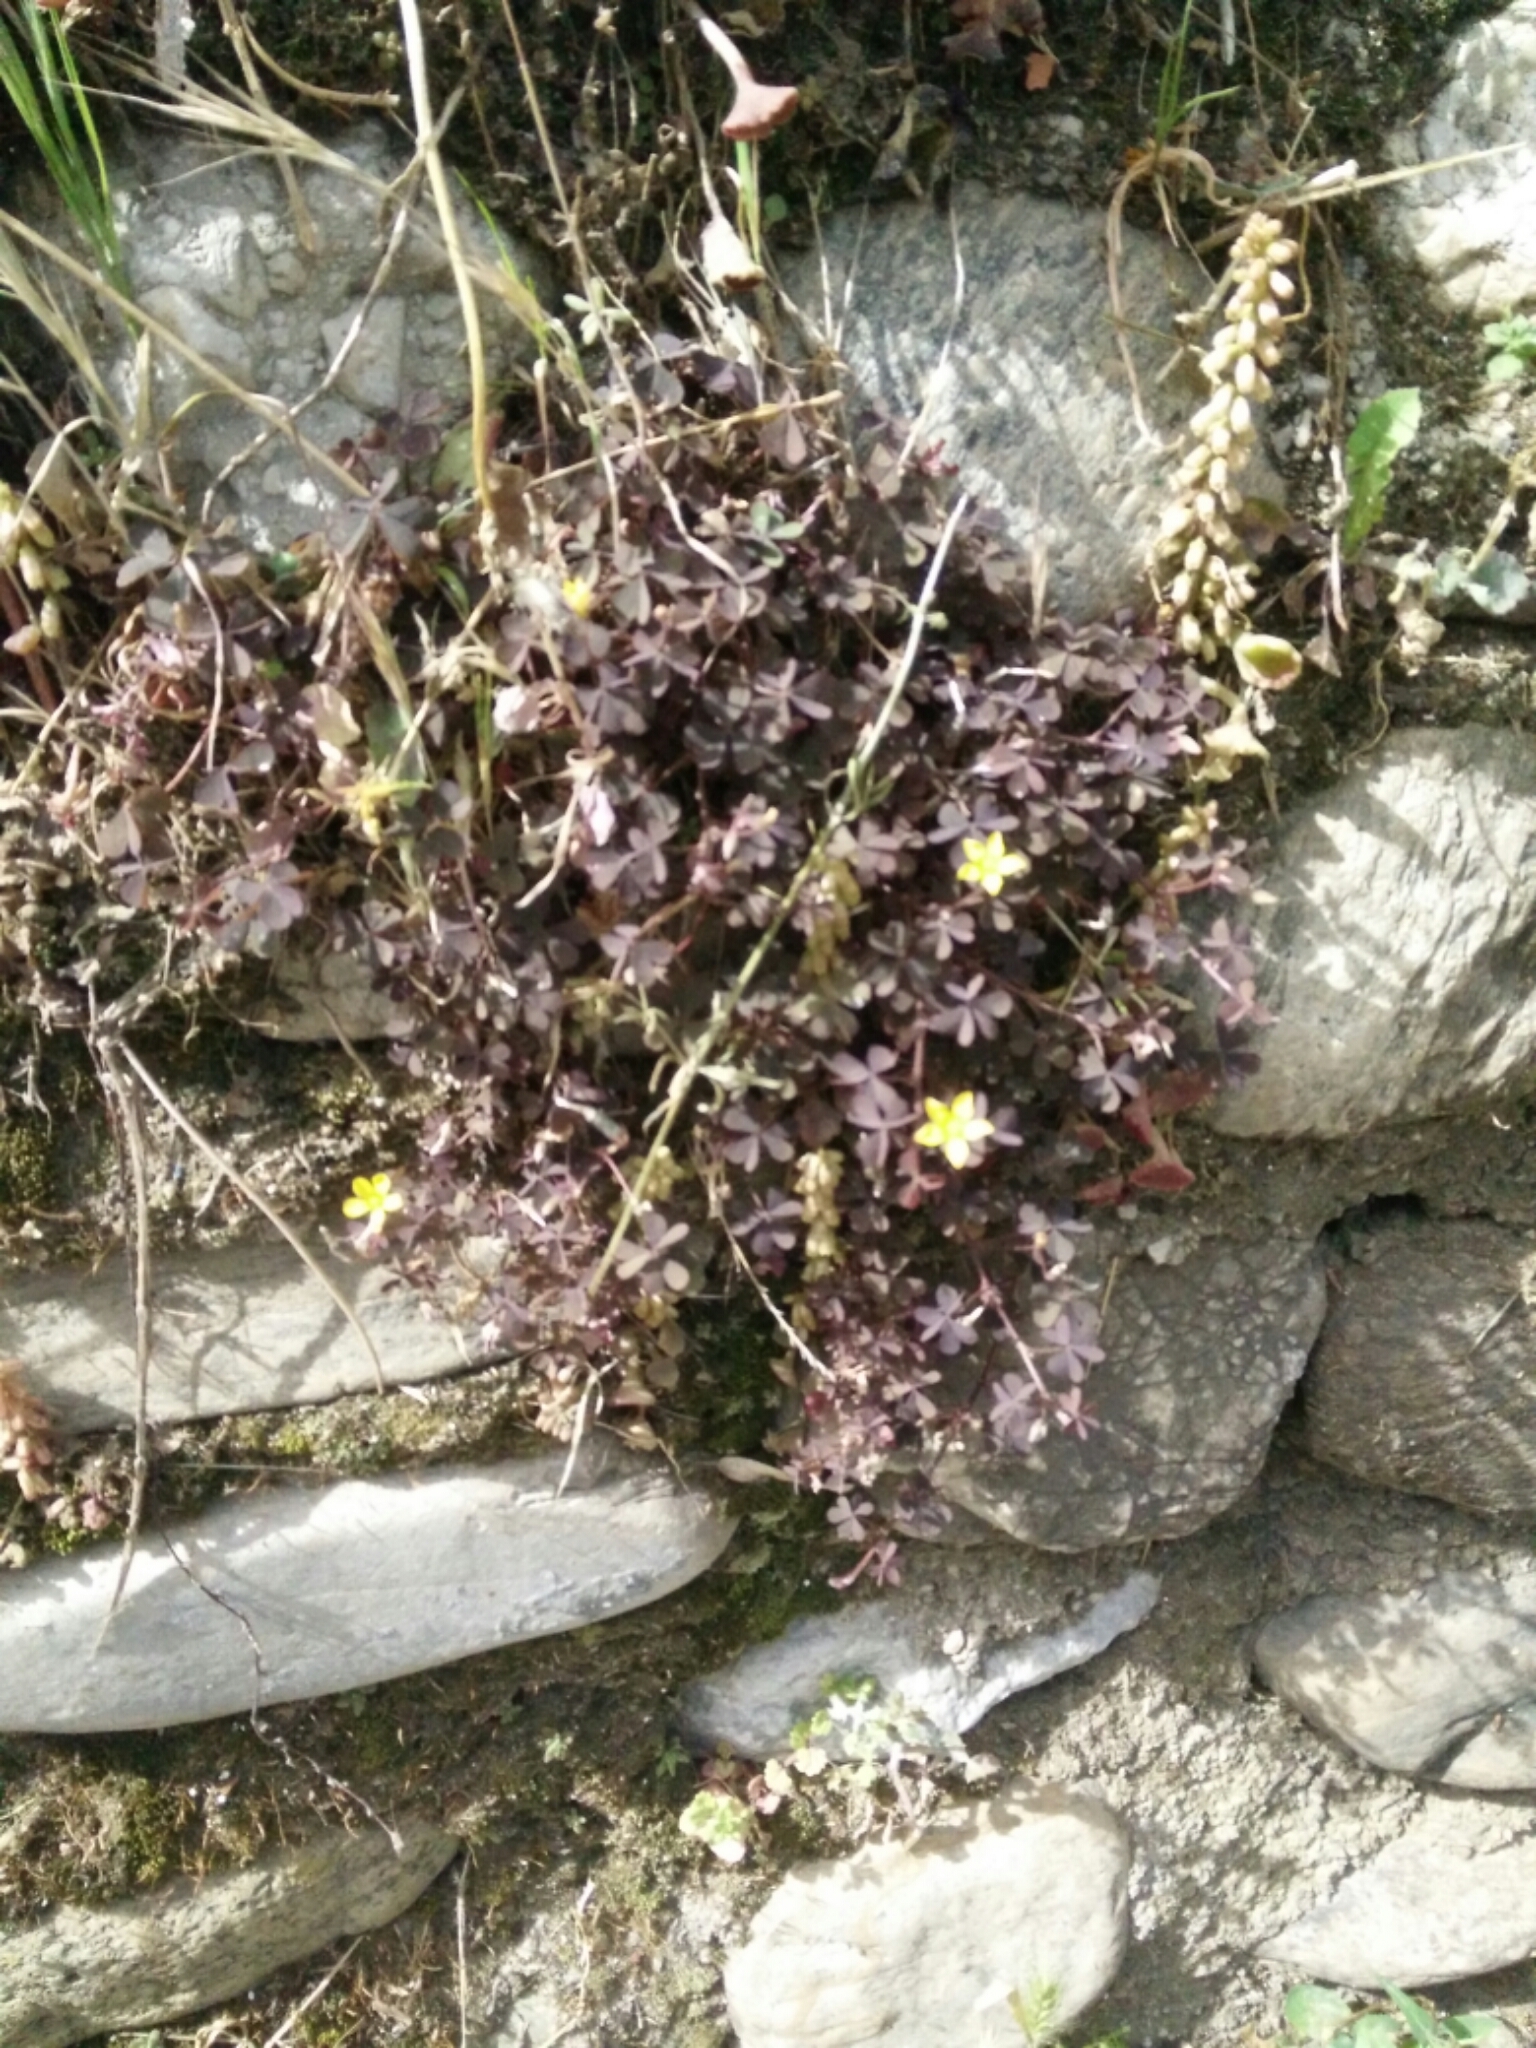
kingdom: Plantae
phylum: Tracheophyta
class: Magnoliopsida
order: Oxalidales
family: Oxalidaceae
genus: Oxalis
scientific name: Oxalis corniculata
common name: Procumbent yellow-sorrel
